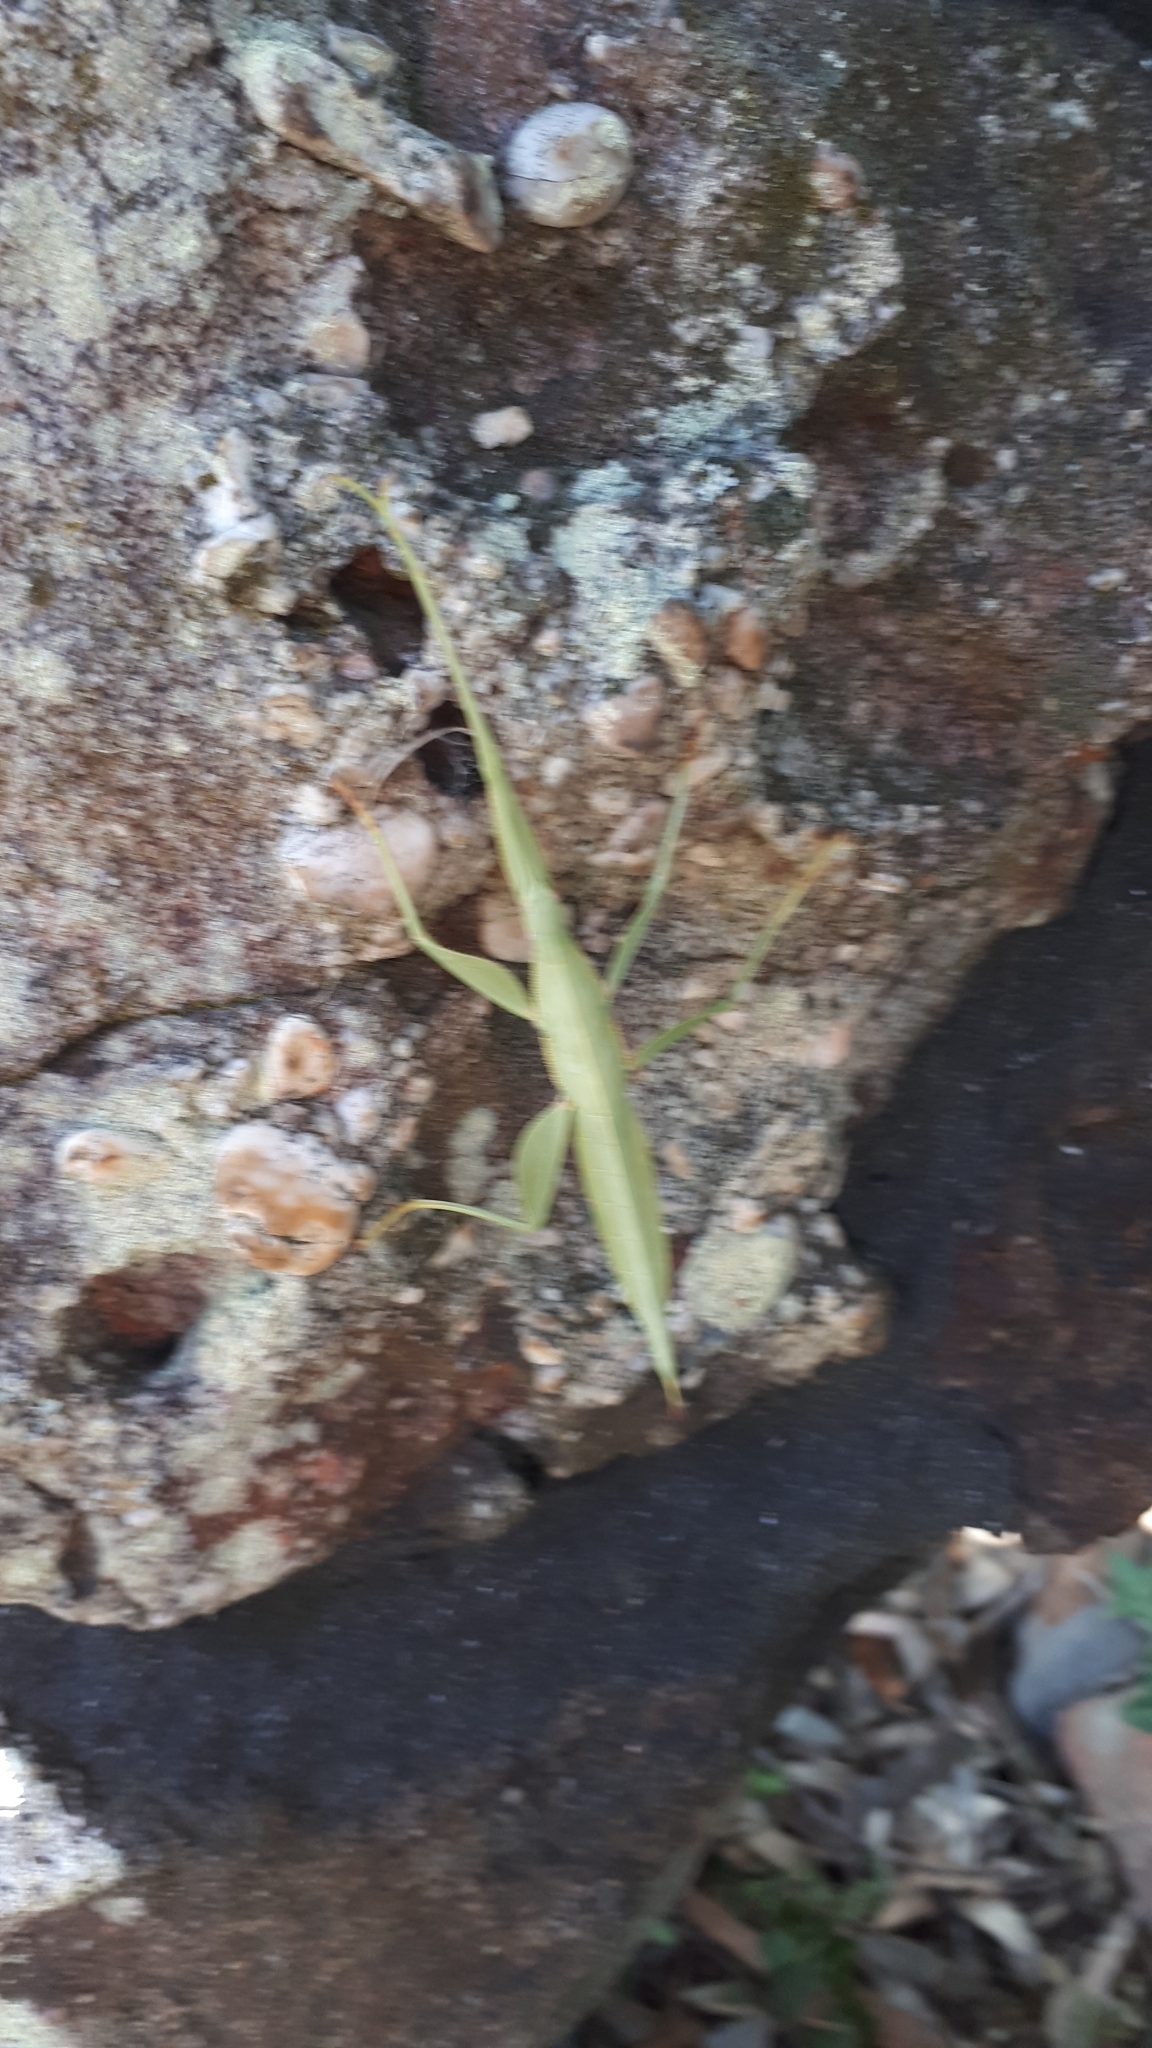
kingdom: Animalia
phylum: Arthropoda
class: Insecta
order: Phasmida
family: Phasmatidae
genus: Tropidoderus
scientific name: Tropidoderus childrenii
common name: Children's stick insect
